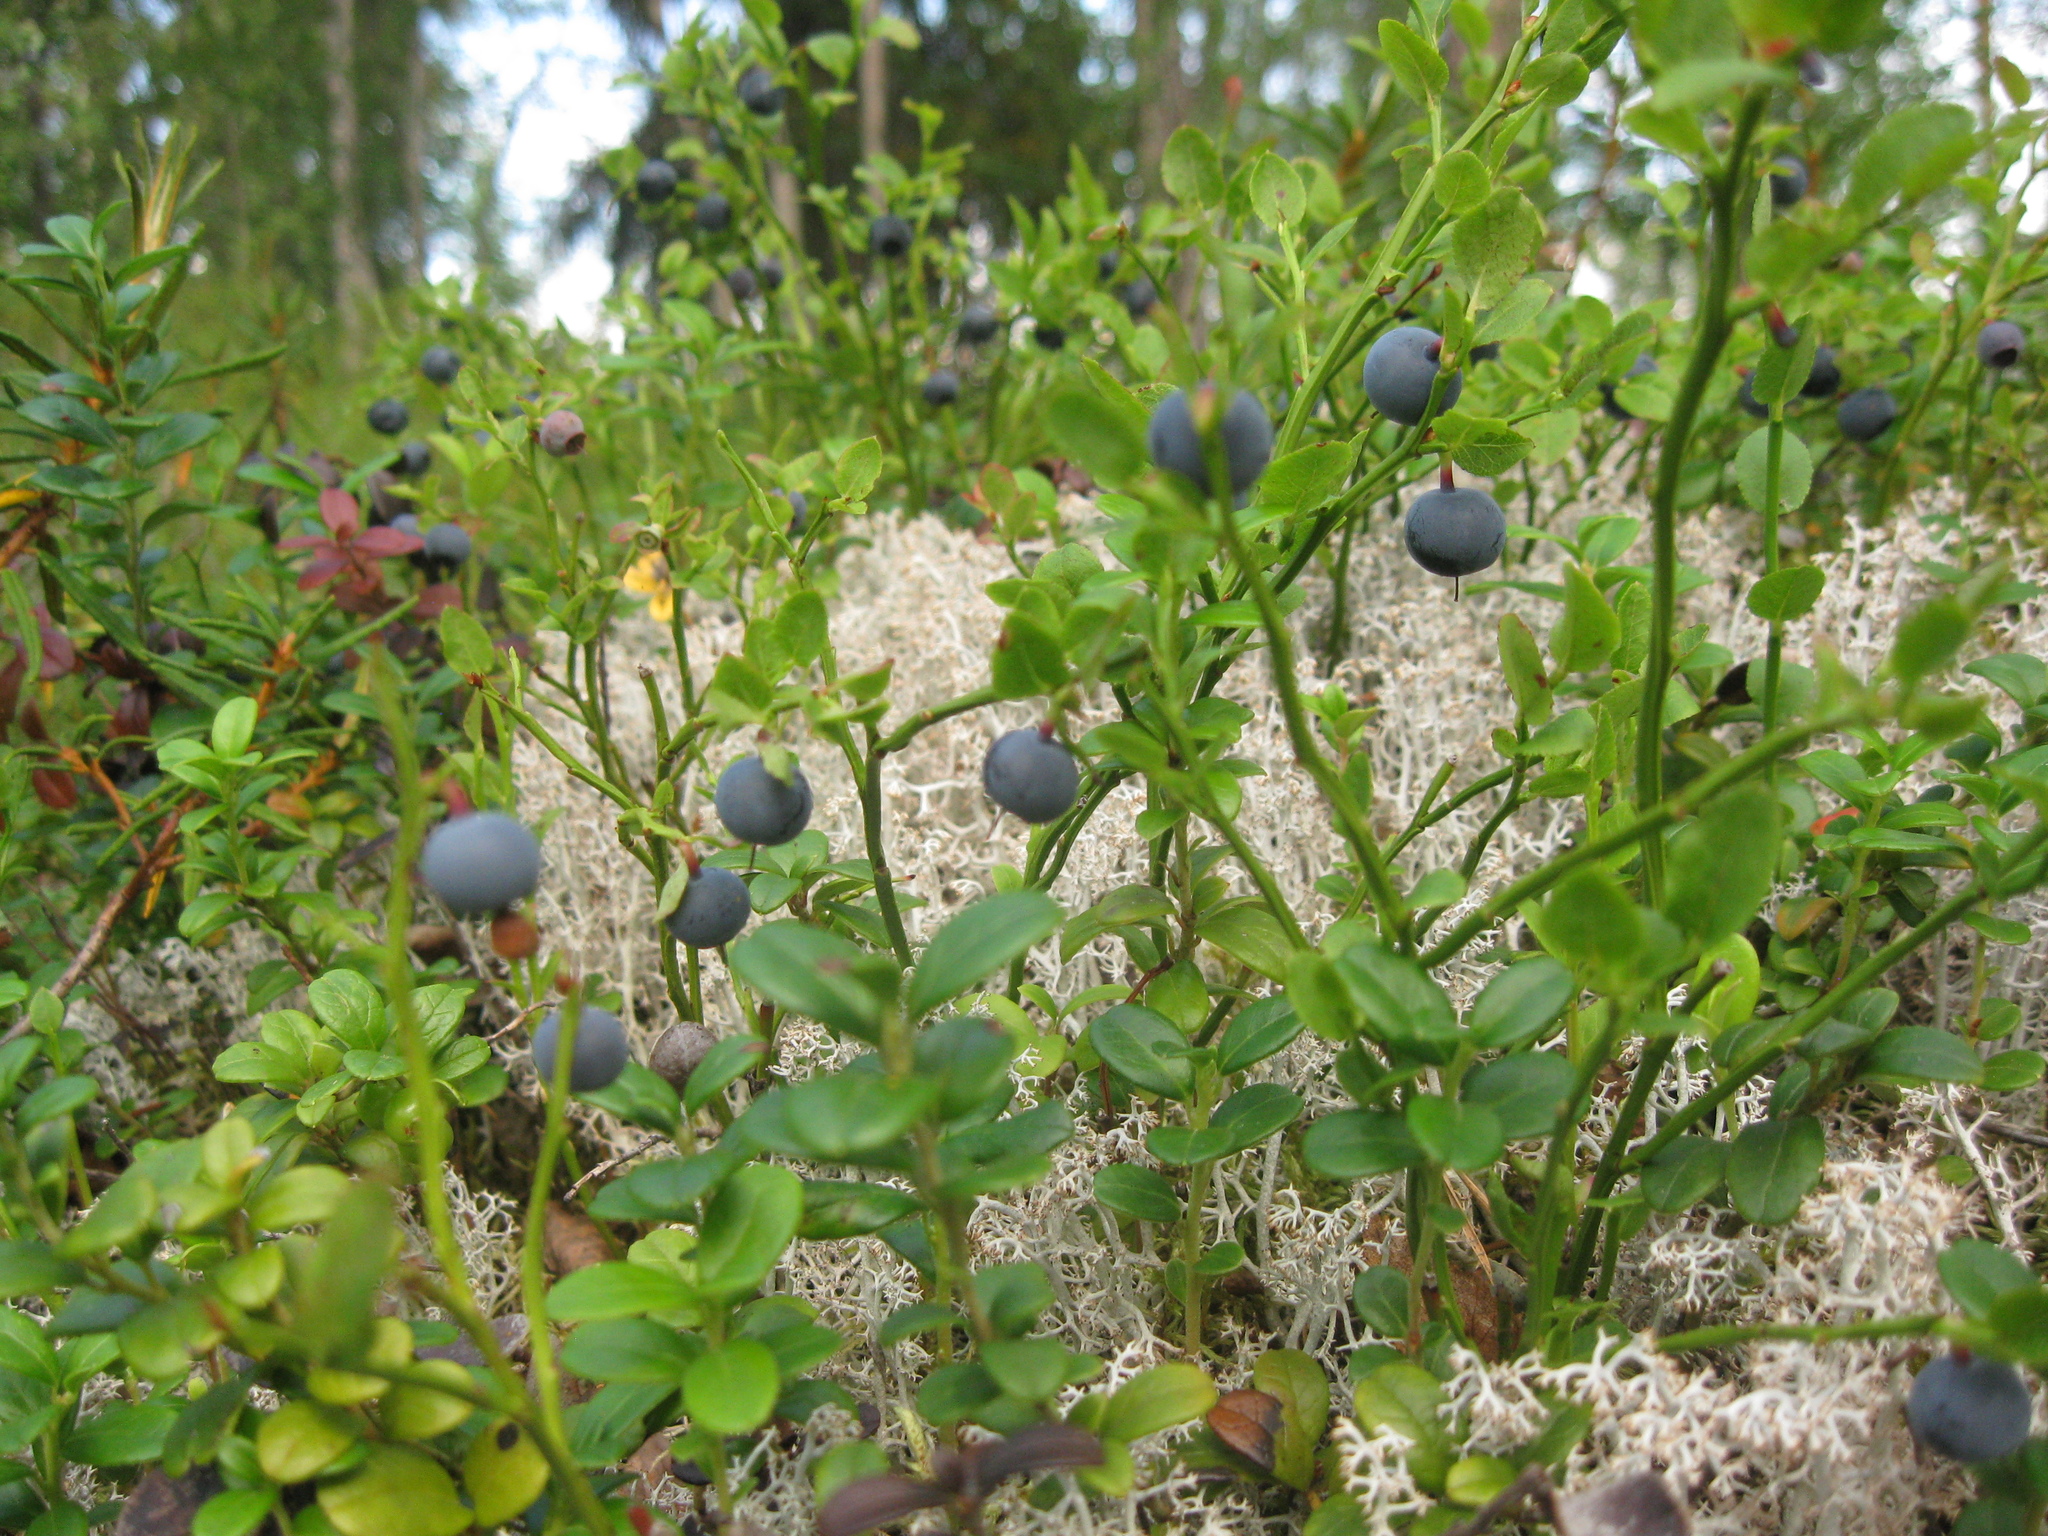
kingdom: Plantae
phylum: Tracheophyta
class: Magnoliopsida
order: Ericales
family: Ericaceae
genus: Vaccinium
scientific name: Vaccinium myrtillus
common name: Bilberry
